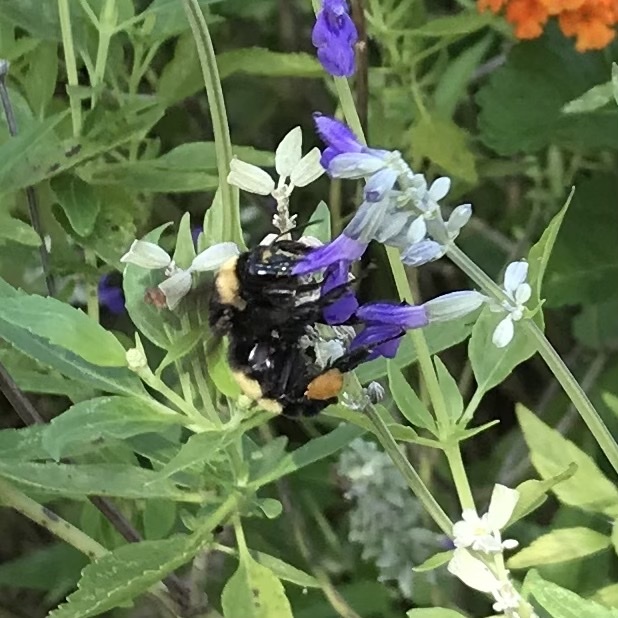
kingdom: Animalia
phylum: Arthropoda
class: Insecta
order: Hymenoptera
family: Apidae
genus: Bombus
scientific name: Bombus pensylvanicus
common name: Bumble bee
